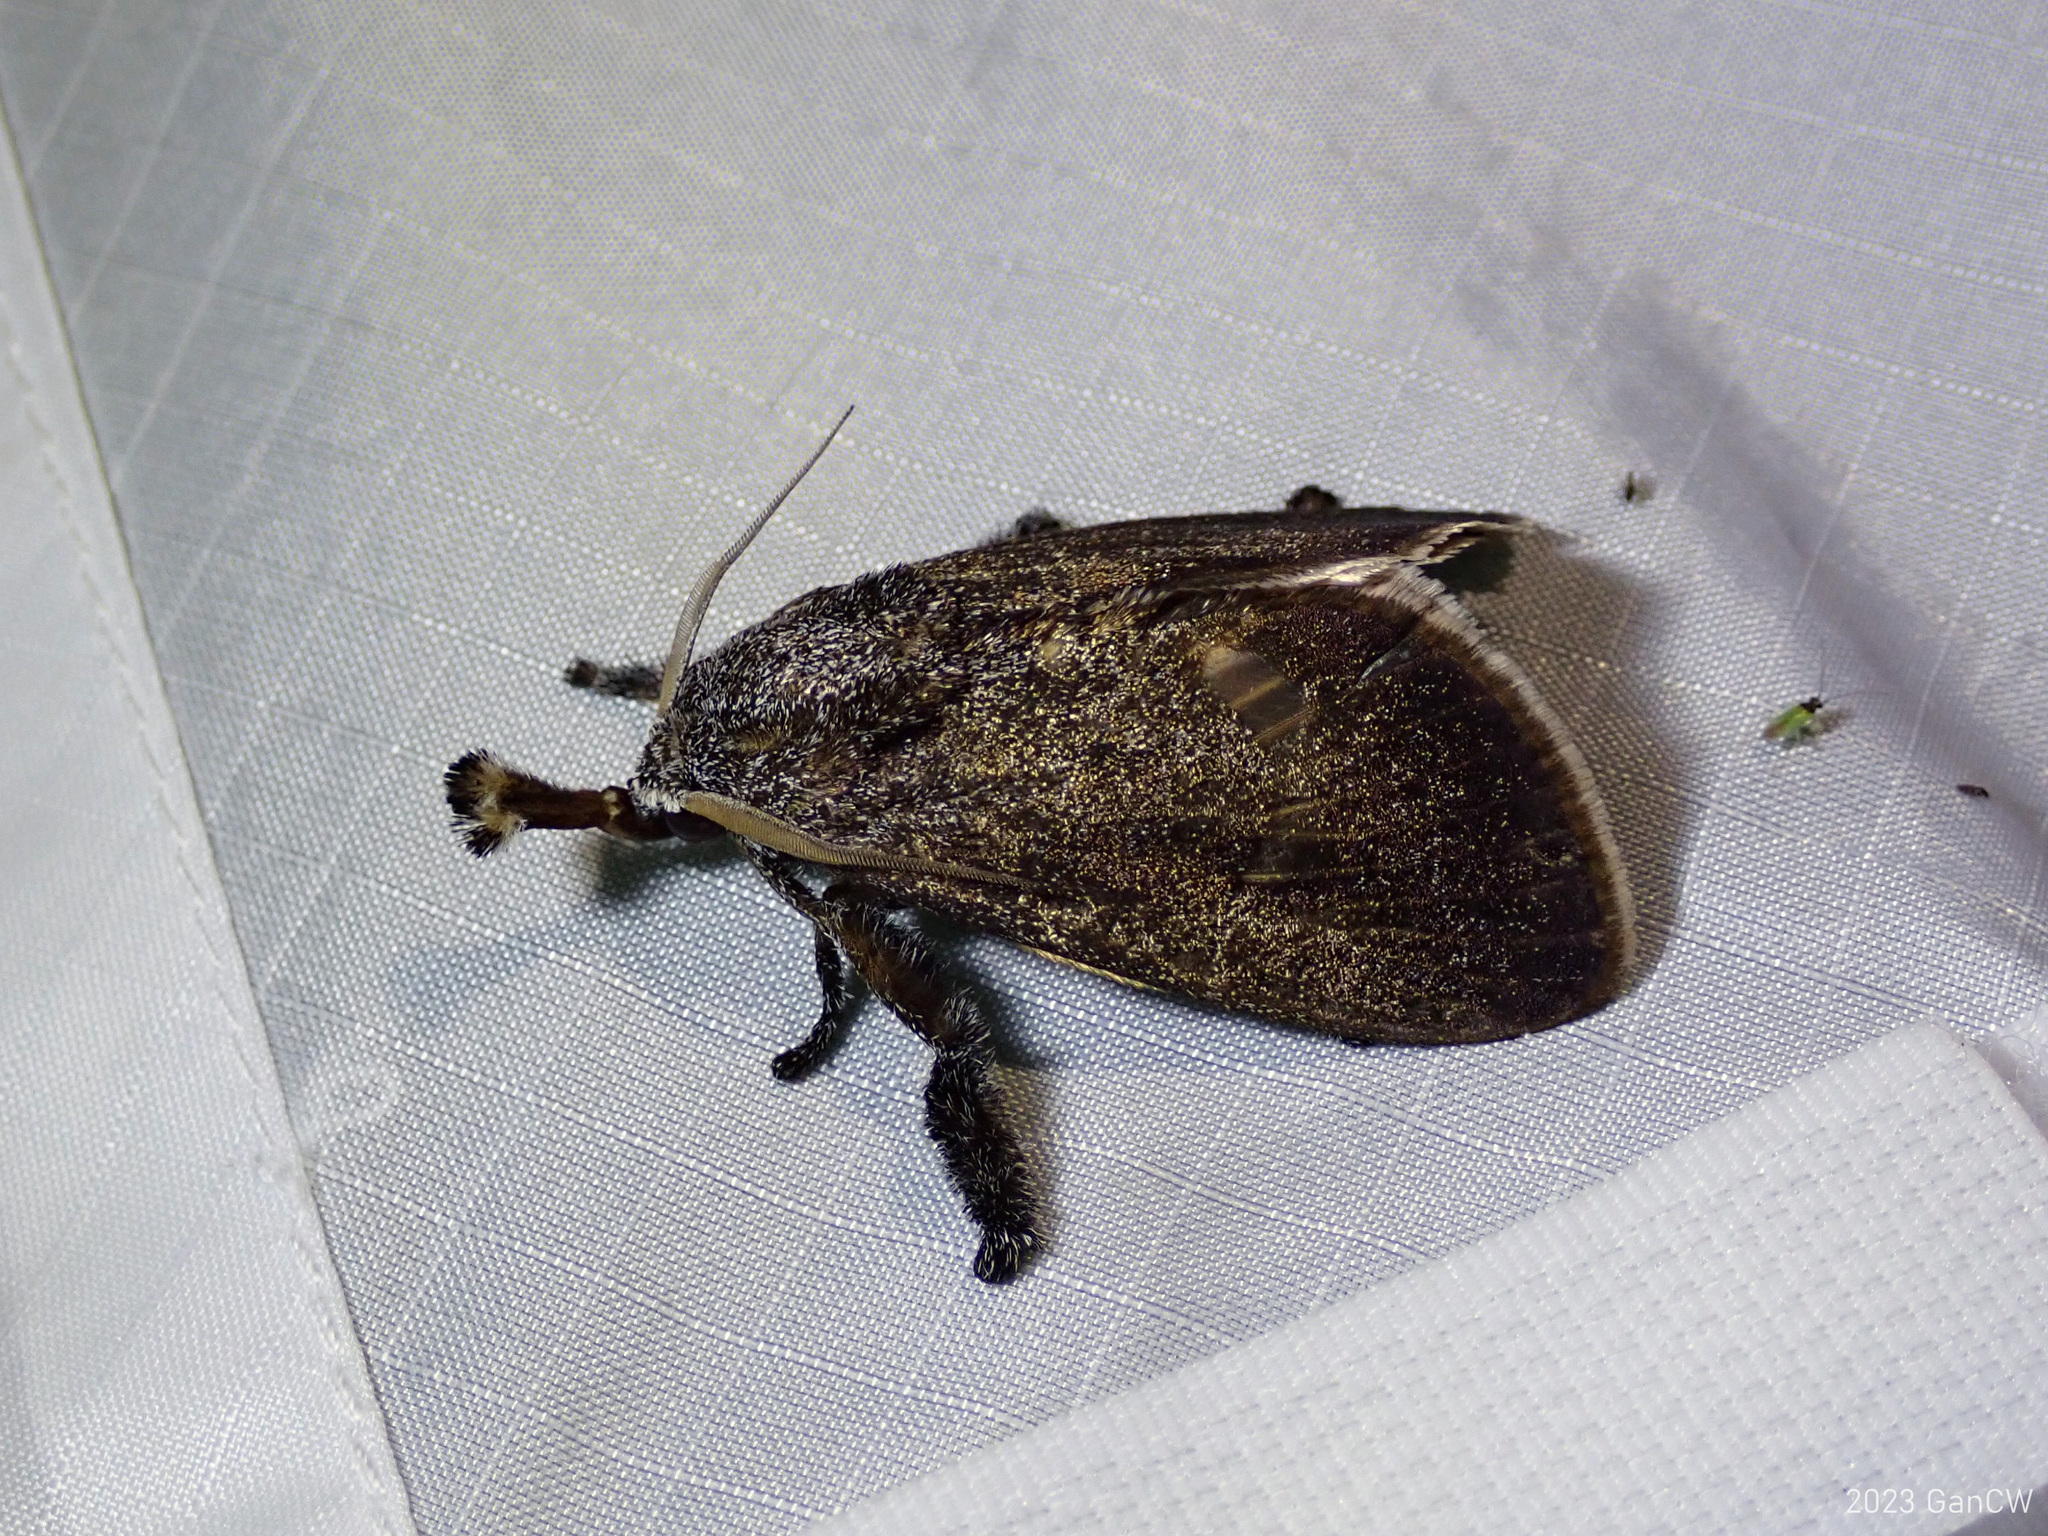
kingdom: Animalia
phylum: Arthropoda
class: Insecta
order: Lepidoptera
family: Limacodidae
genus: Scopelodes
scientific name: Scopelodes testacea
